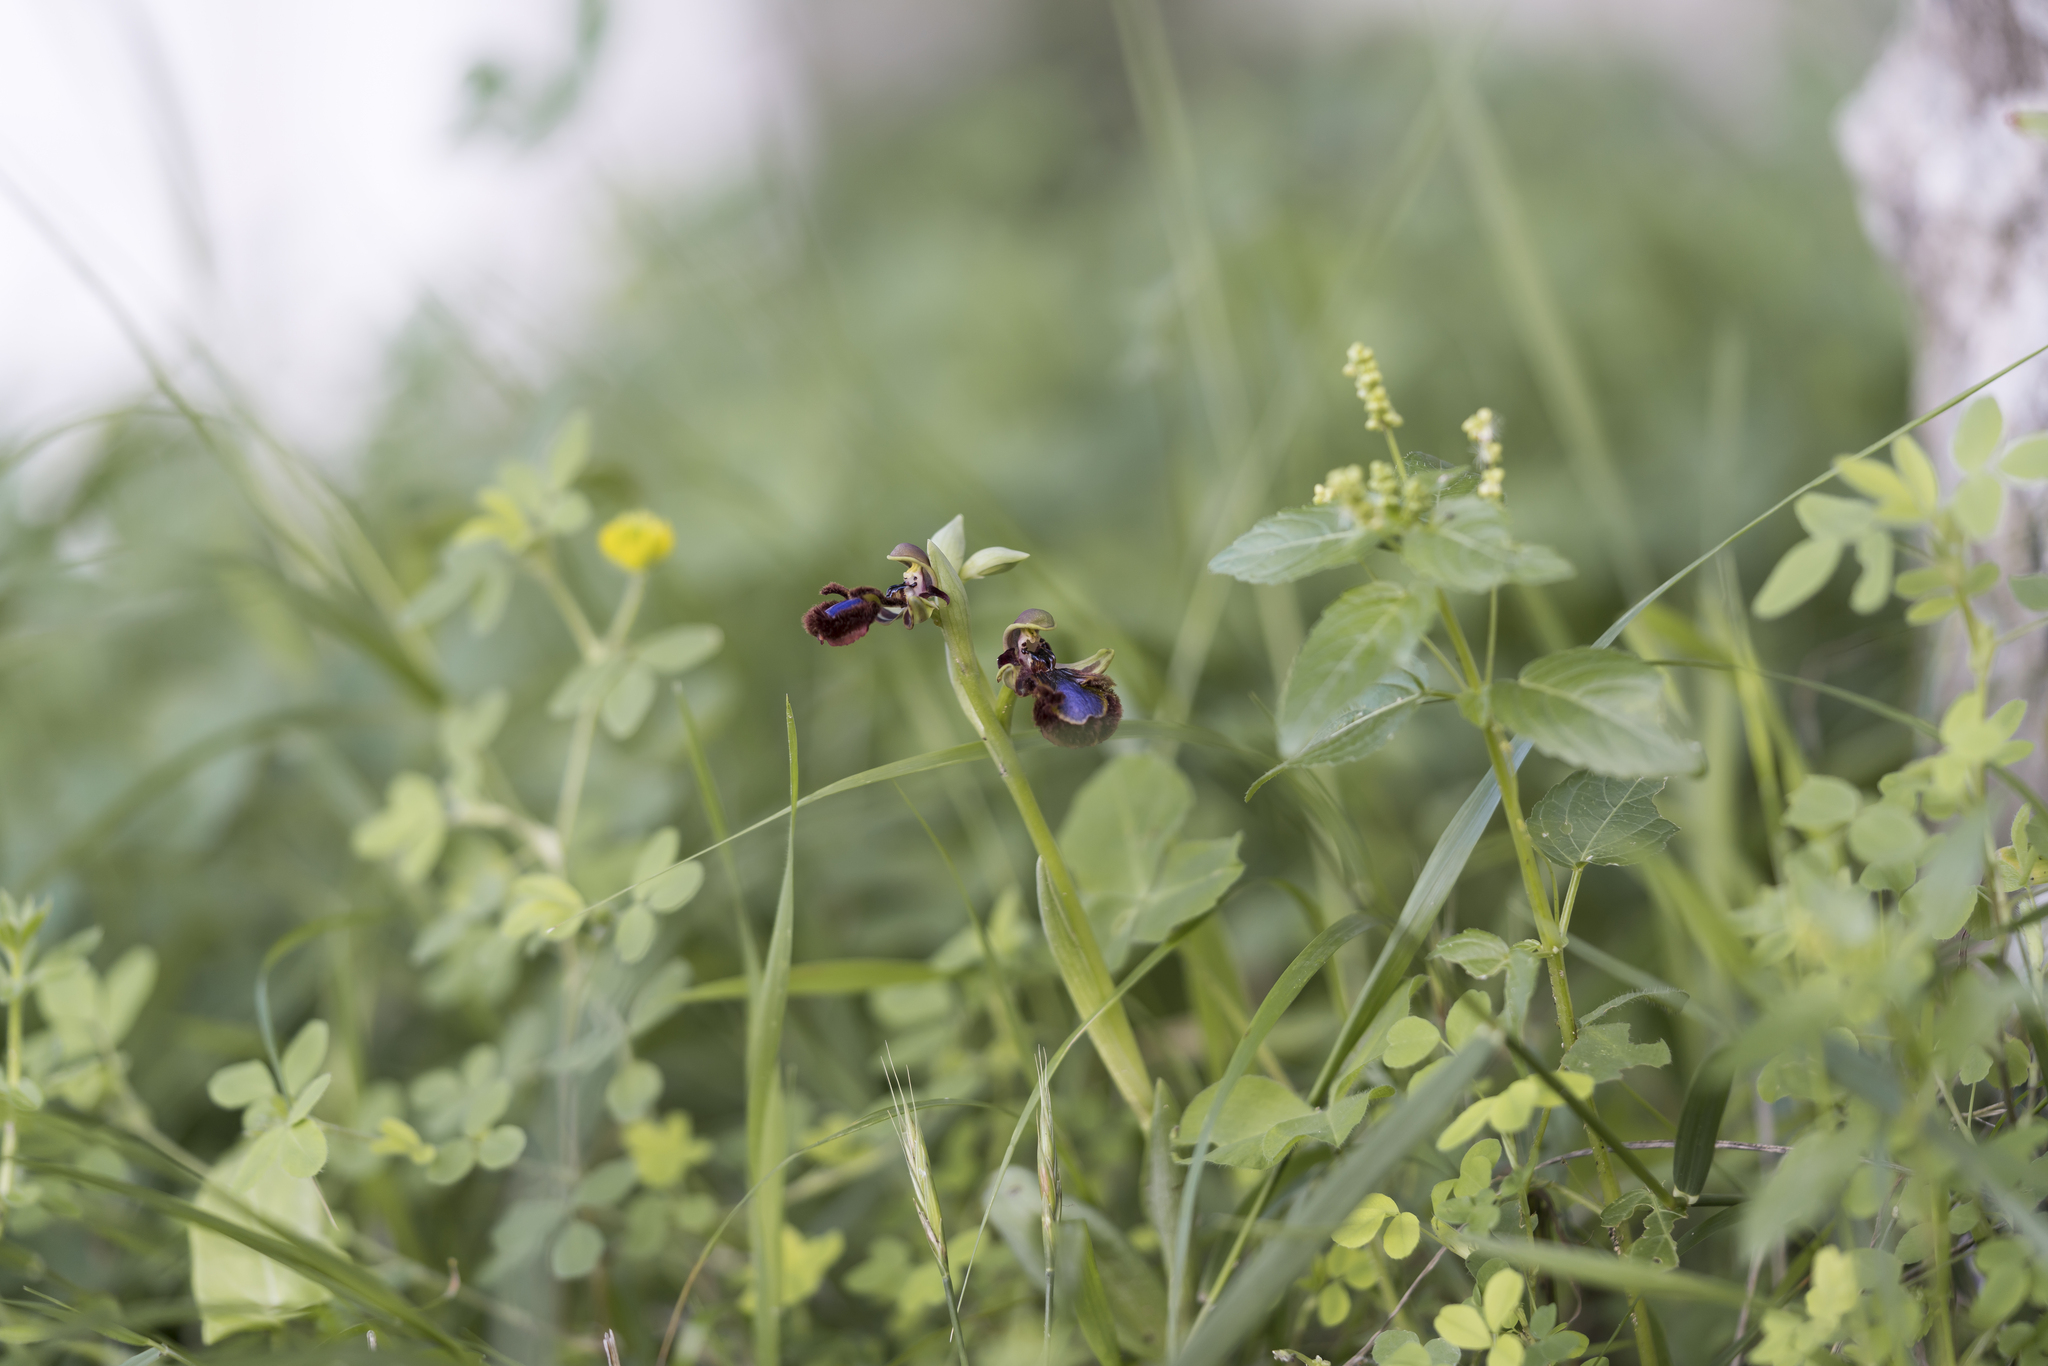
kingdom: Plantae
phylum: Tracheophyta
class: Liliopsida
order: Asparagales
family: Orchidaceae
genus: Ophrys
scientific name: Ophrys speculum
